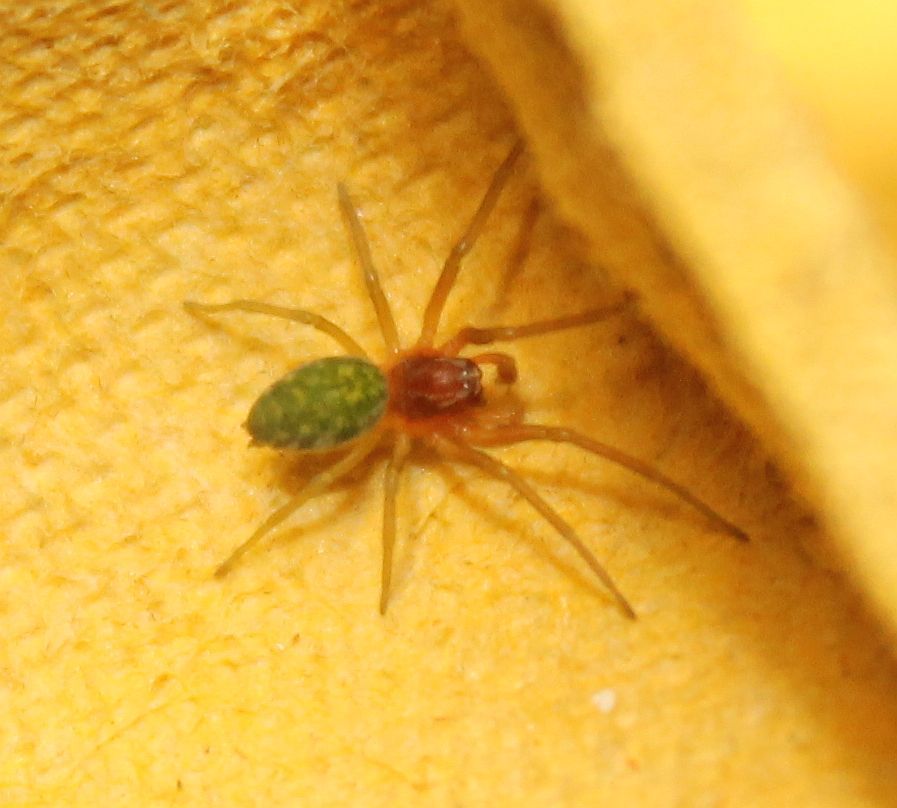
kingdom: Animalia
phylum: Arthropoda
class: Arachnida
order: Araneae
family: Dictynidae
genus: Nigma
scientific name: Nigma walckenaeri
